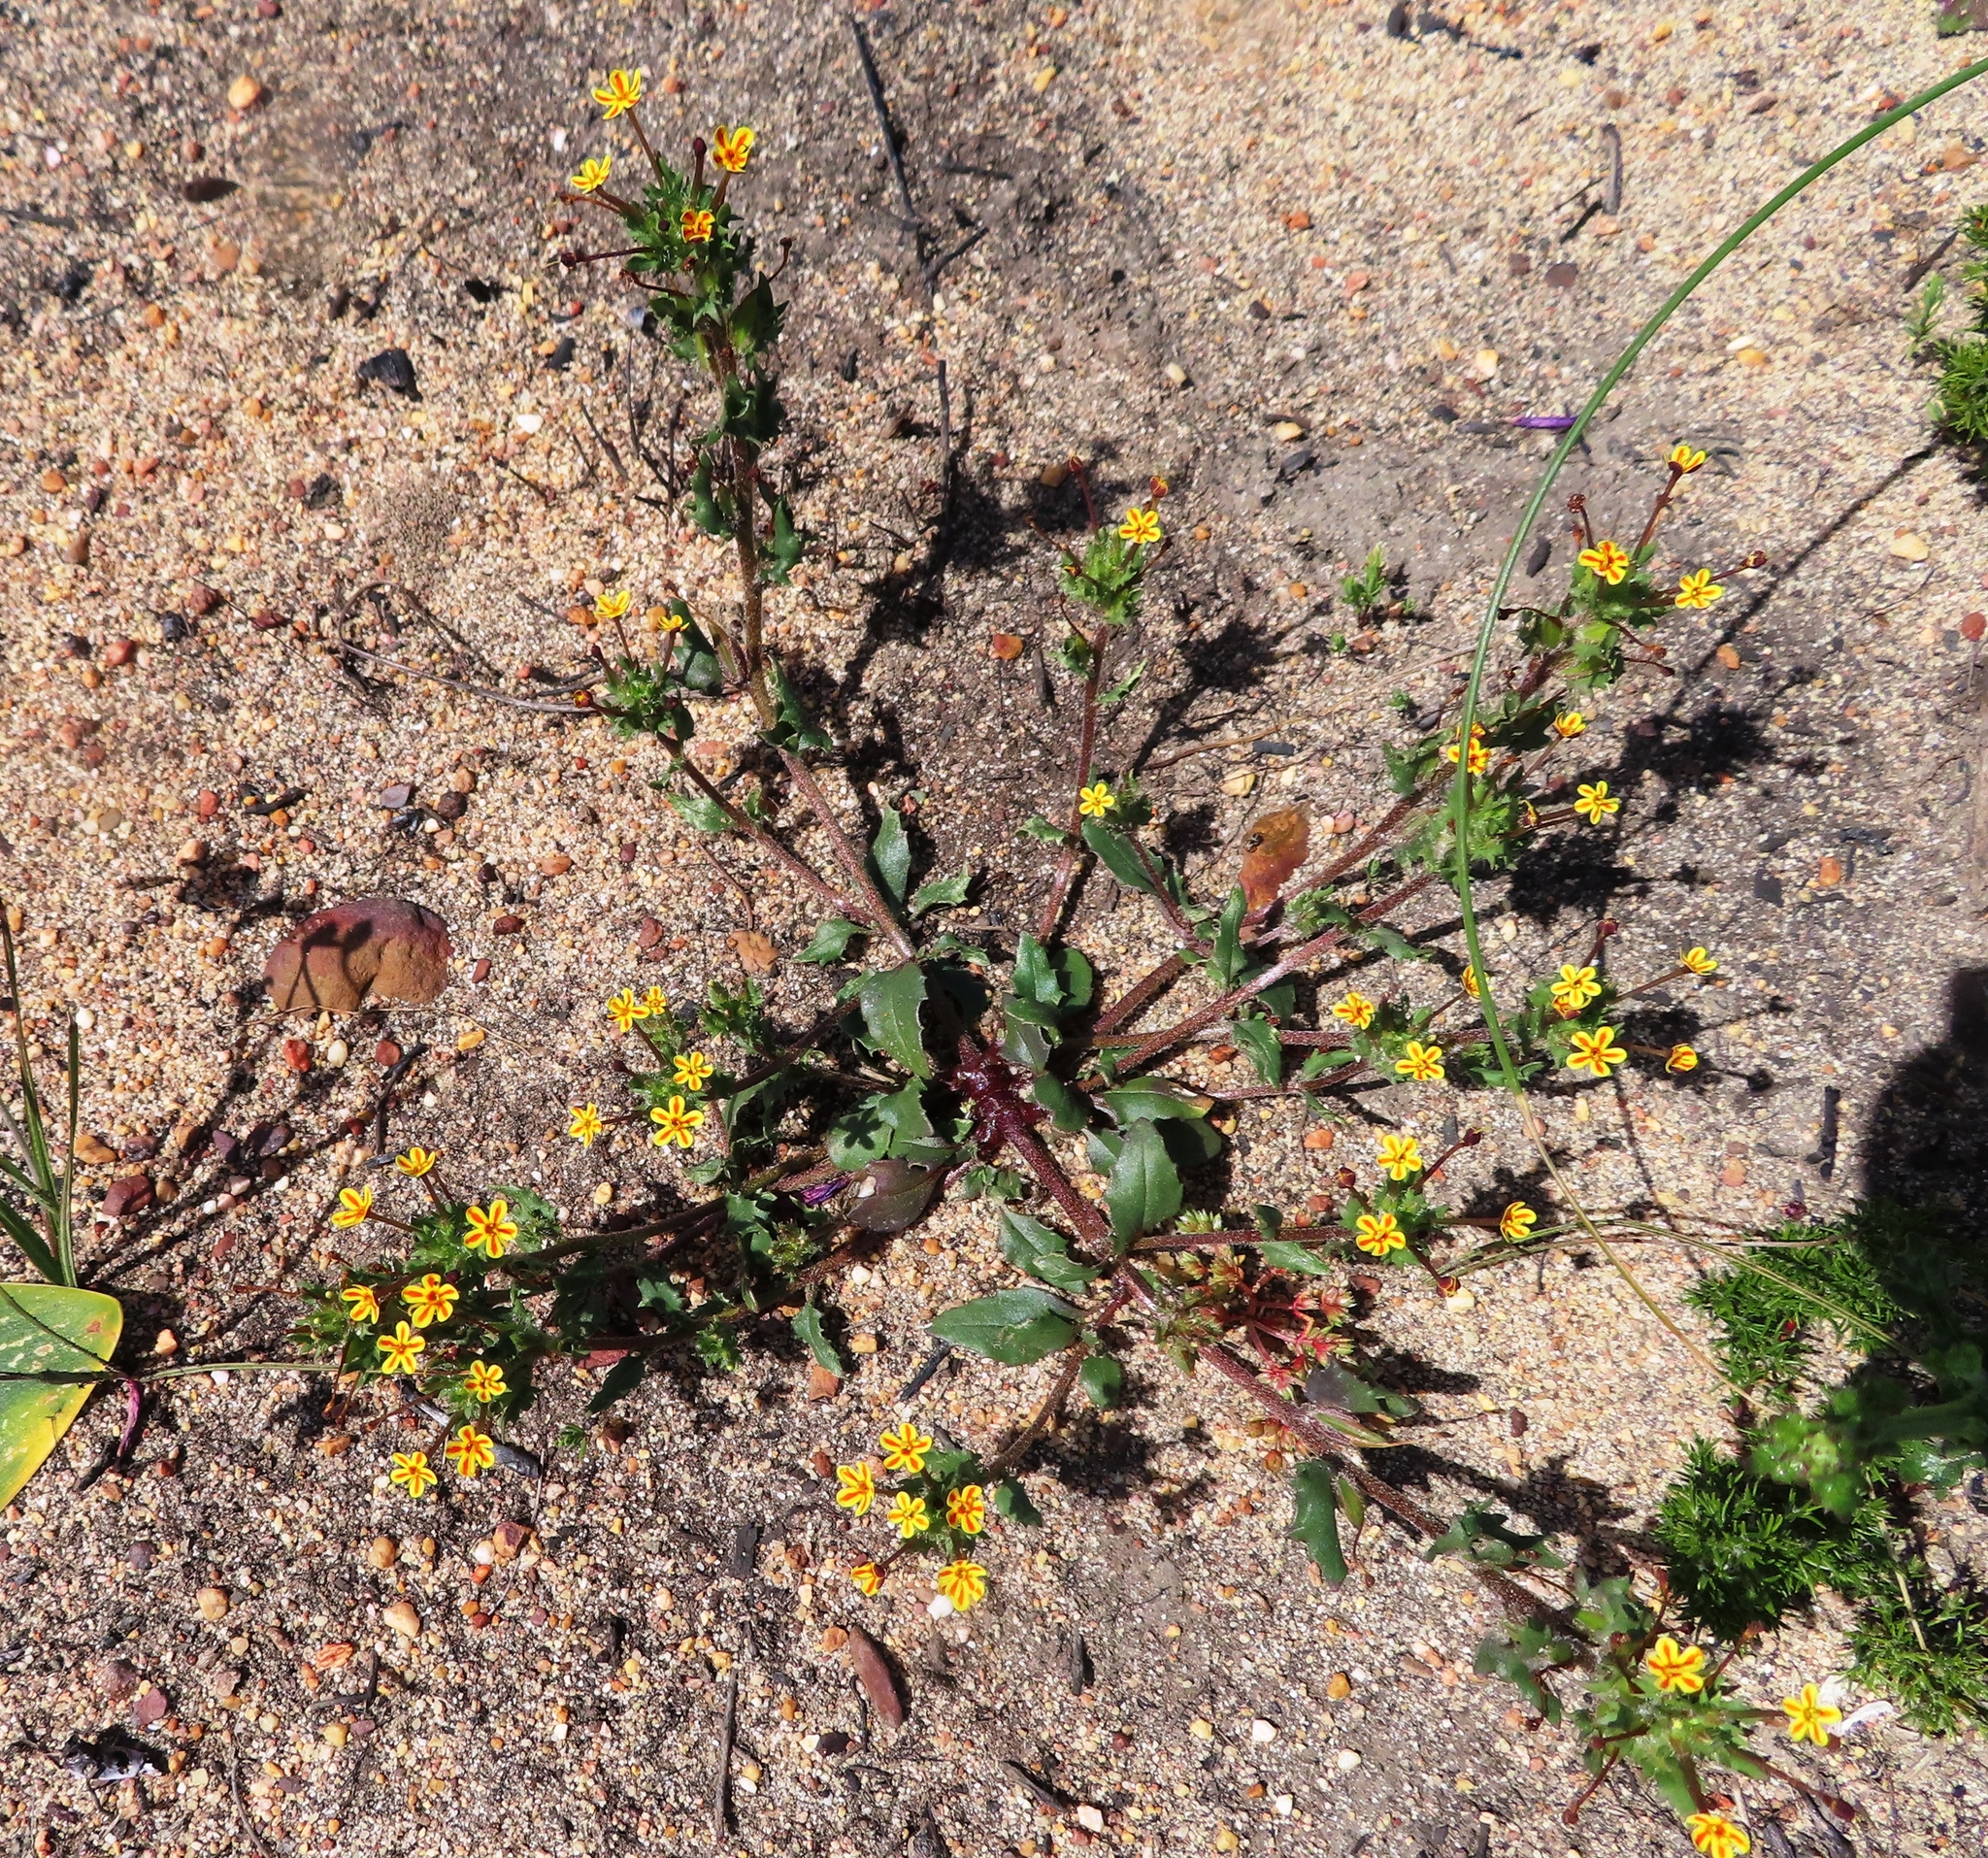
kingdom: Plantae
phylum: Tracheophyta
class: Magnoliopsida
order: Lamiales
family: Scrophulariaceae
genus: Zaluzianskya
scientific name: Zaluzianskya divaricata
